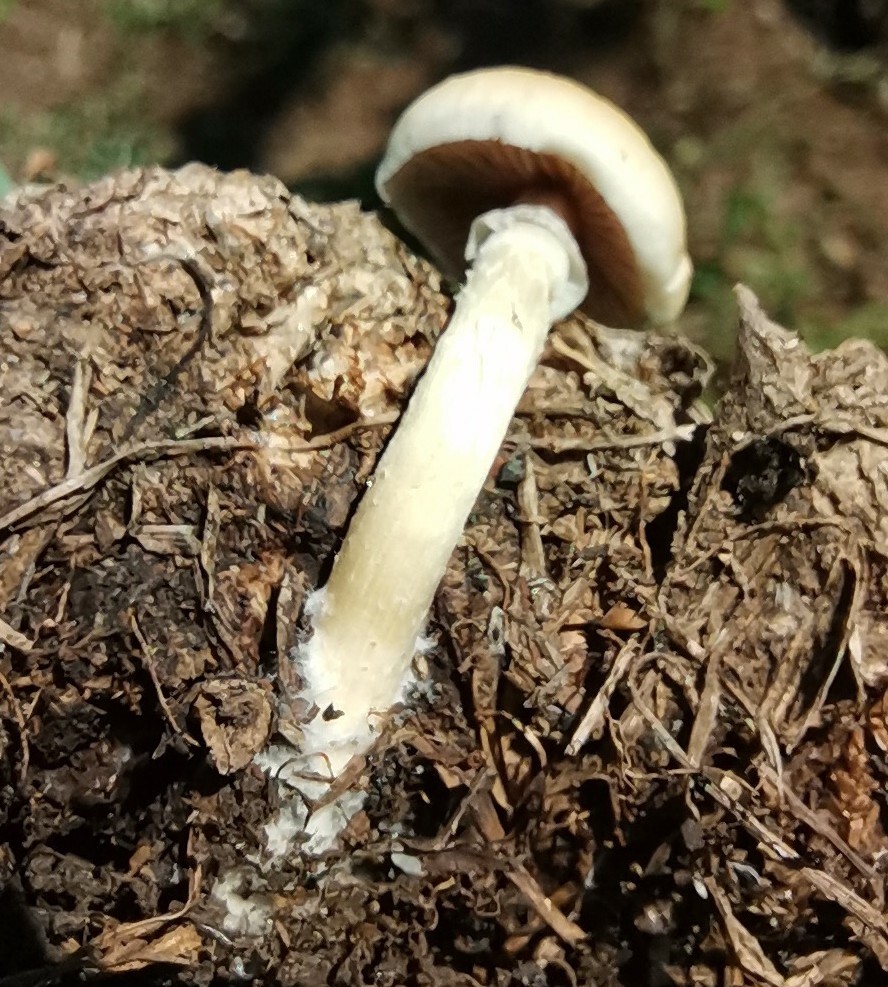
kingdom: Fungi
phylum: Basidiomycota
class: Agaricomycetes
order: Agaricales
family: Hymenogastraceae
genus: Psilocybe
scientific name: Psilocybe cubensis
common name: Golden brownie
